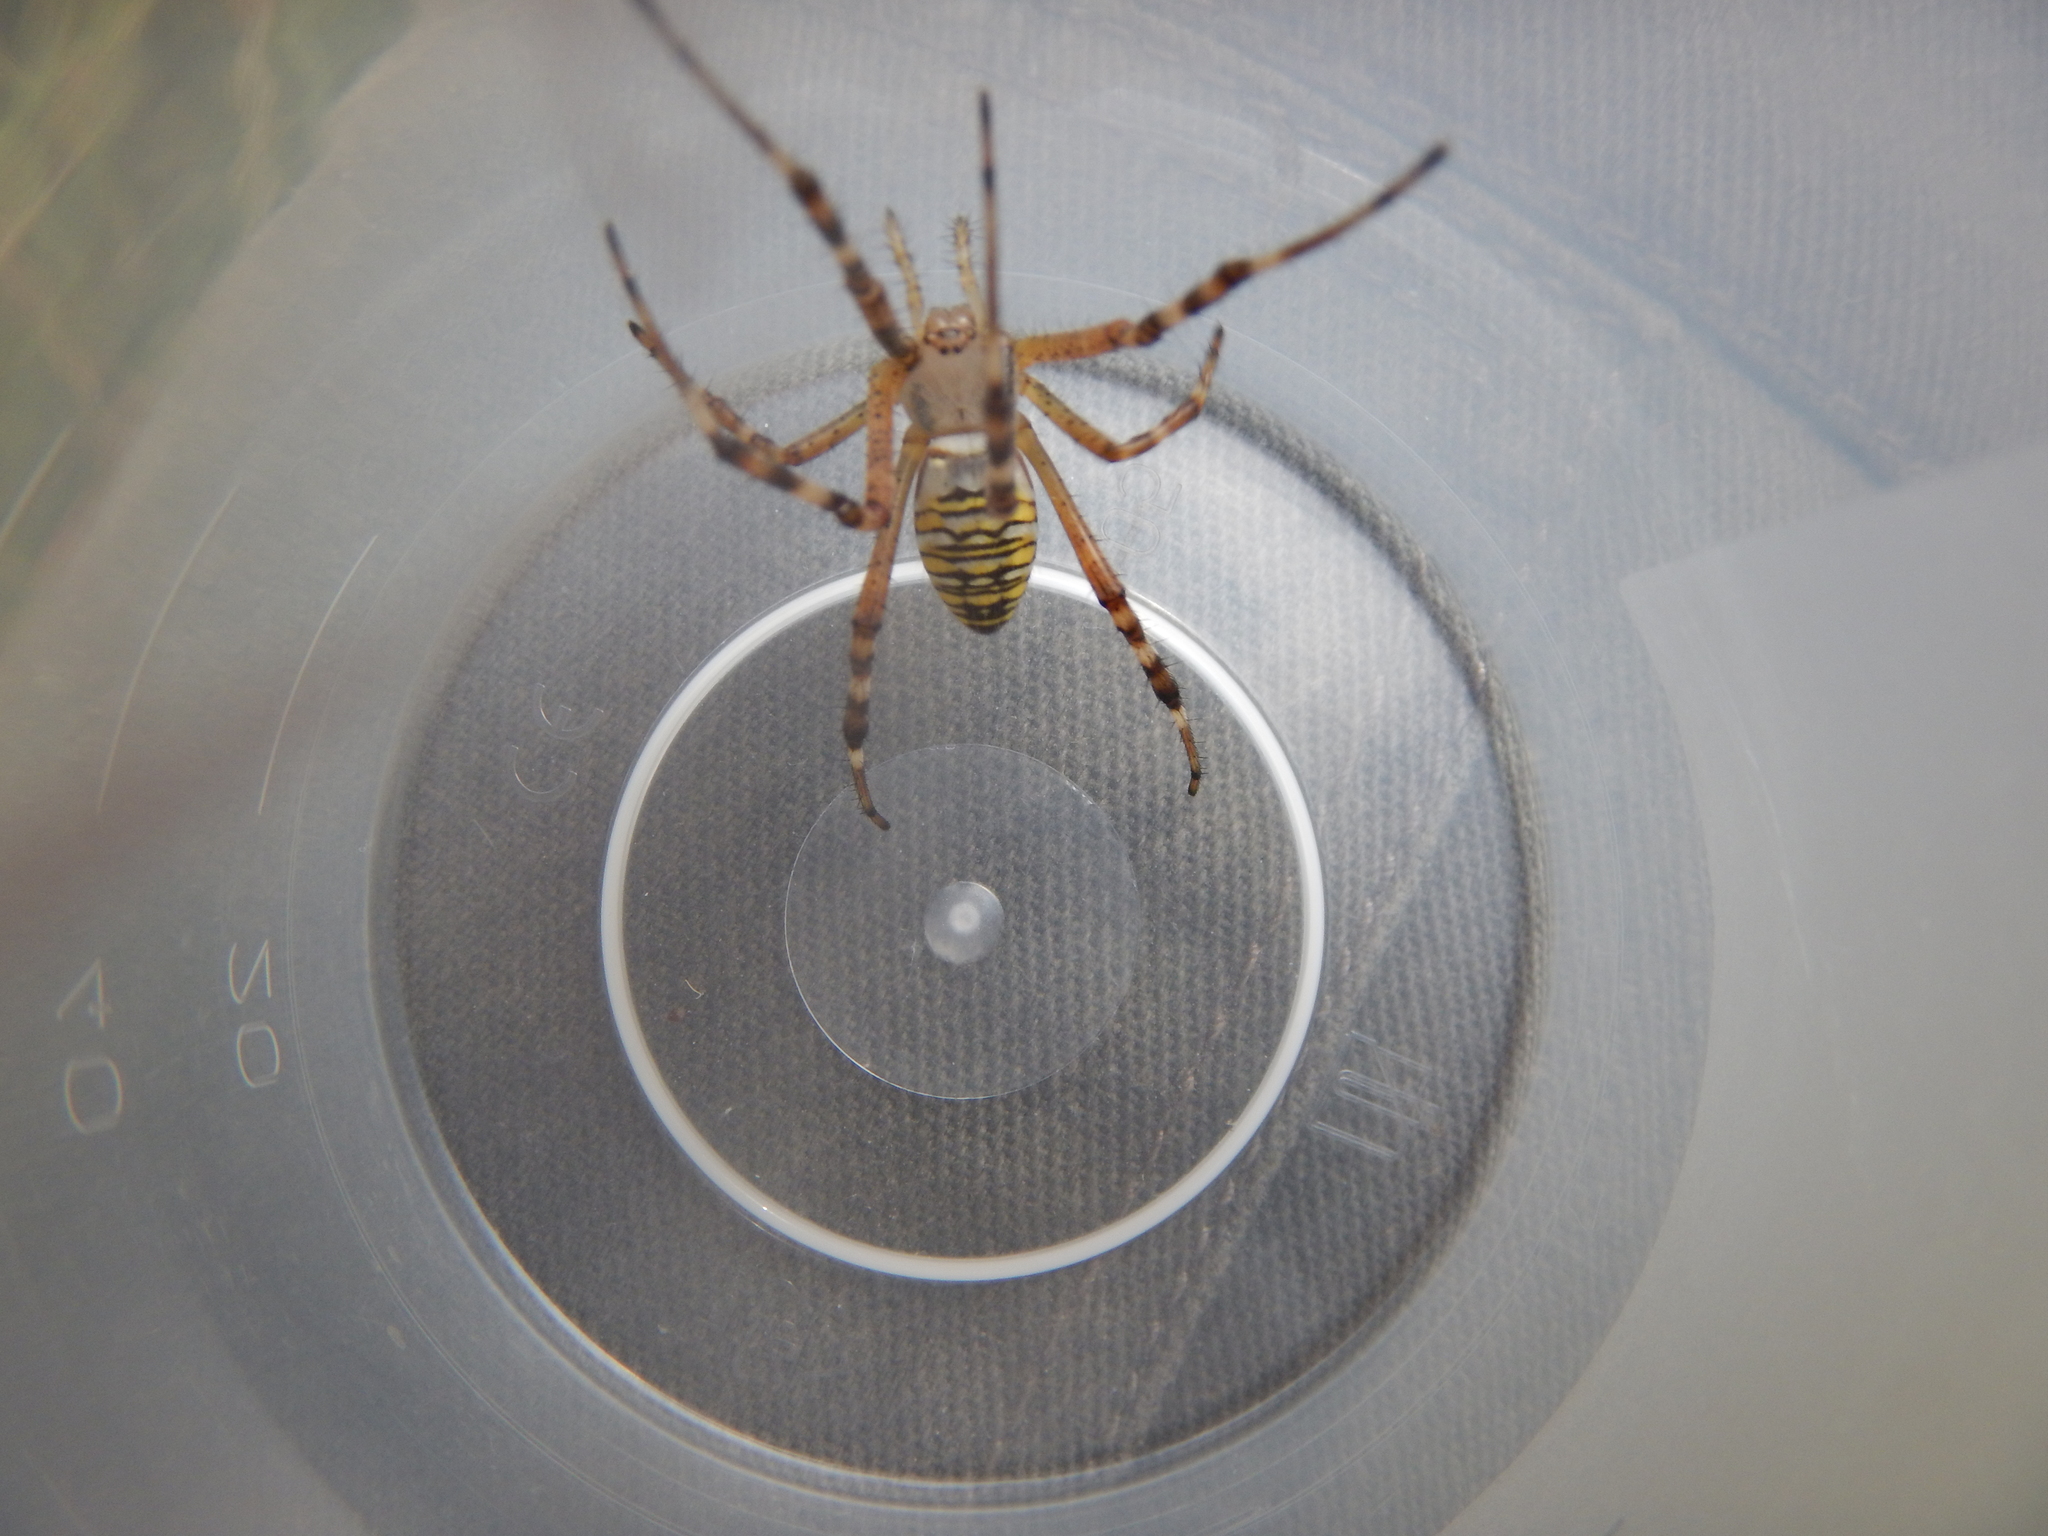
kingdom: Animalia
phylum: Arthropoda
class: Arachnida
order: Araneae
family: Araneidae
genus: Argiope
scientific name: Argiope bruennichi
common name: Wasp spider
